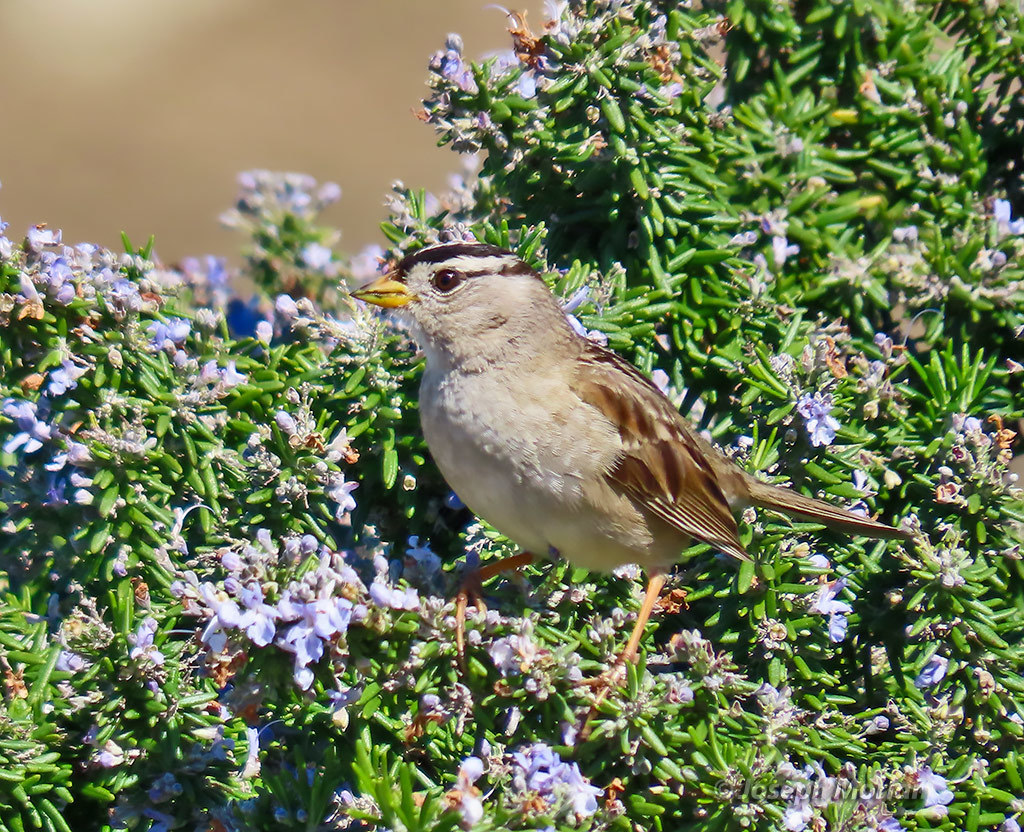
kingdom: Animalia
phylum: Chordata
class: Aves
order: Passeriformes
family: Passerellidae
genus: Zonotrichia
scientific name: Zonotrichia leucophrys
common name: White-crowned sparrow
